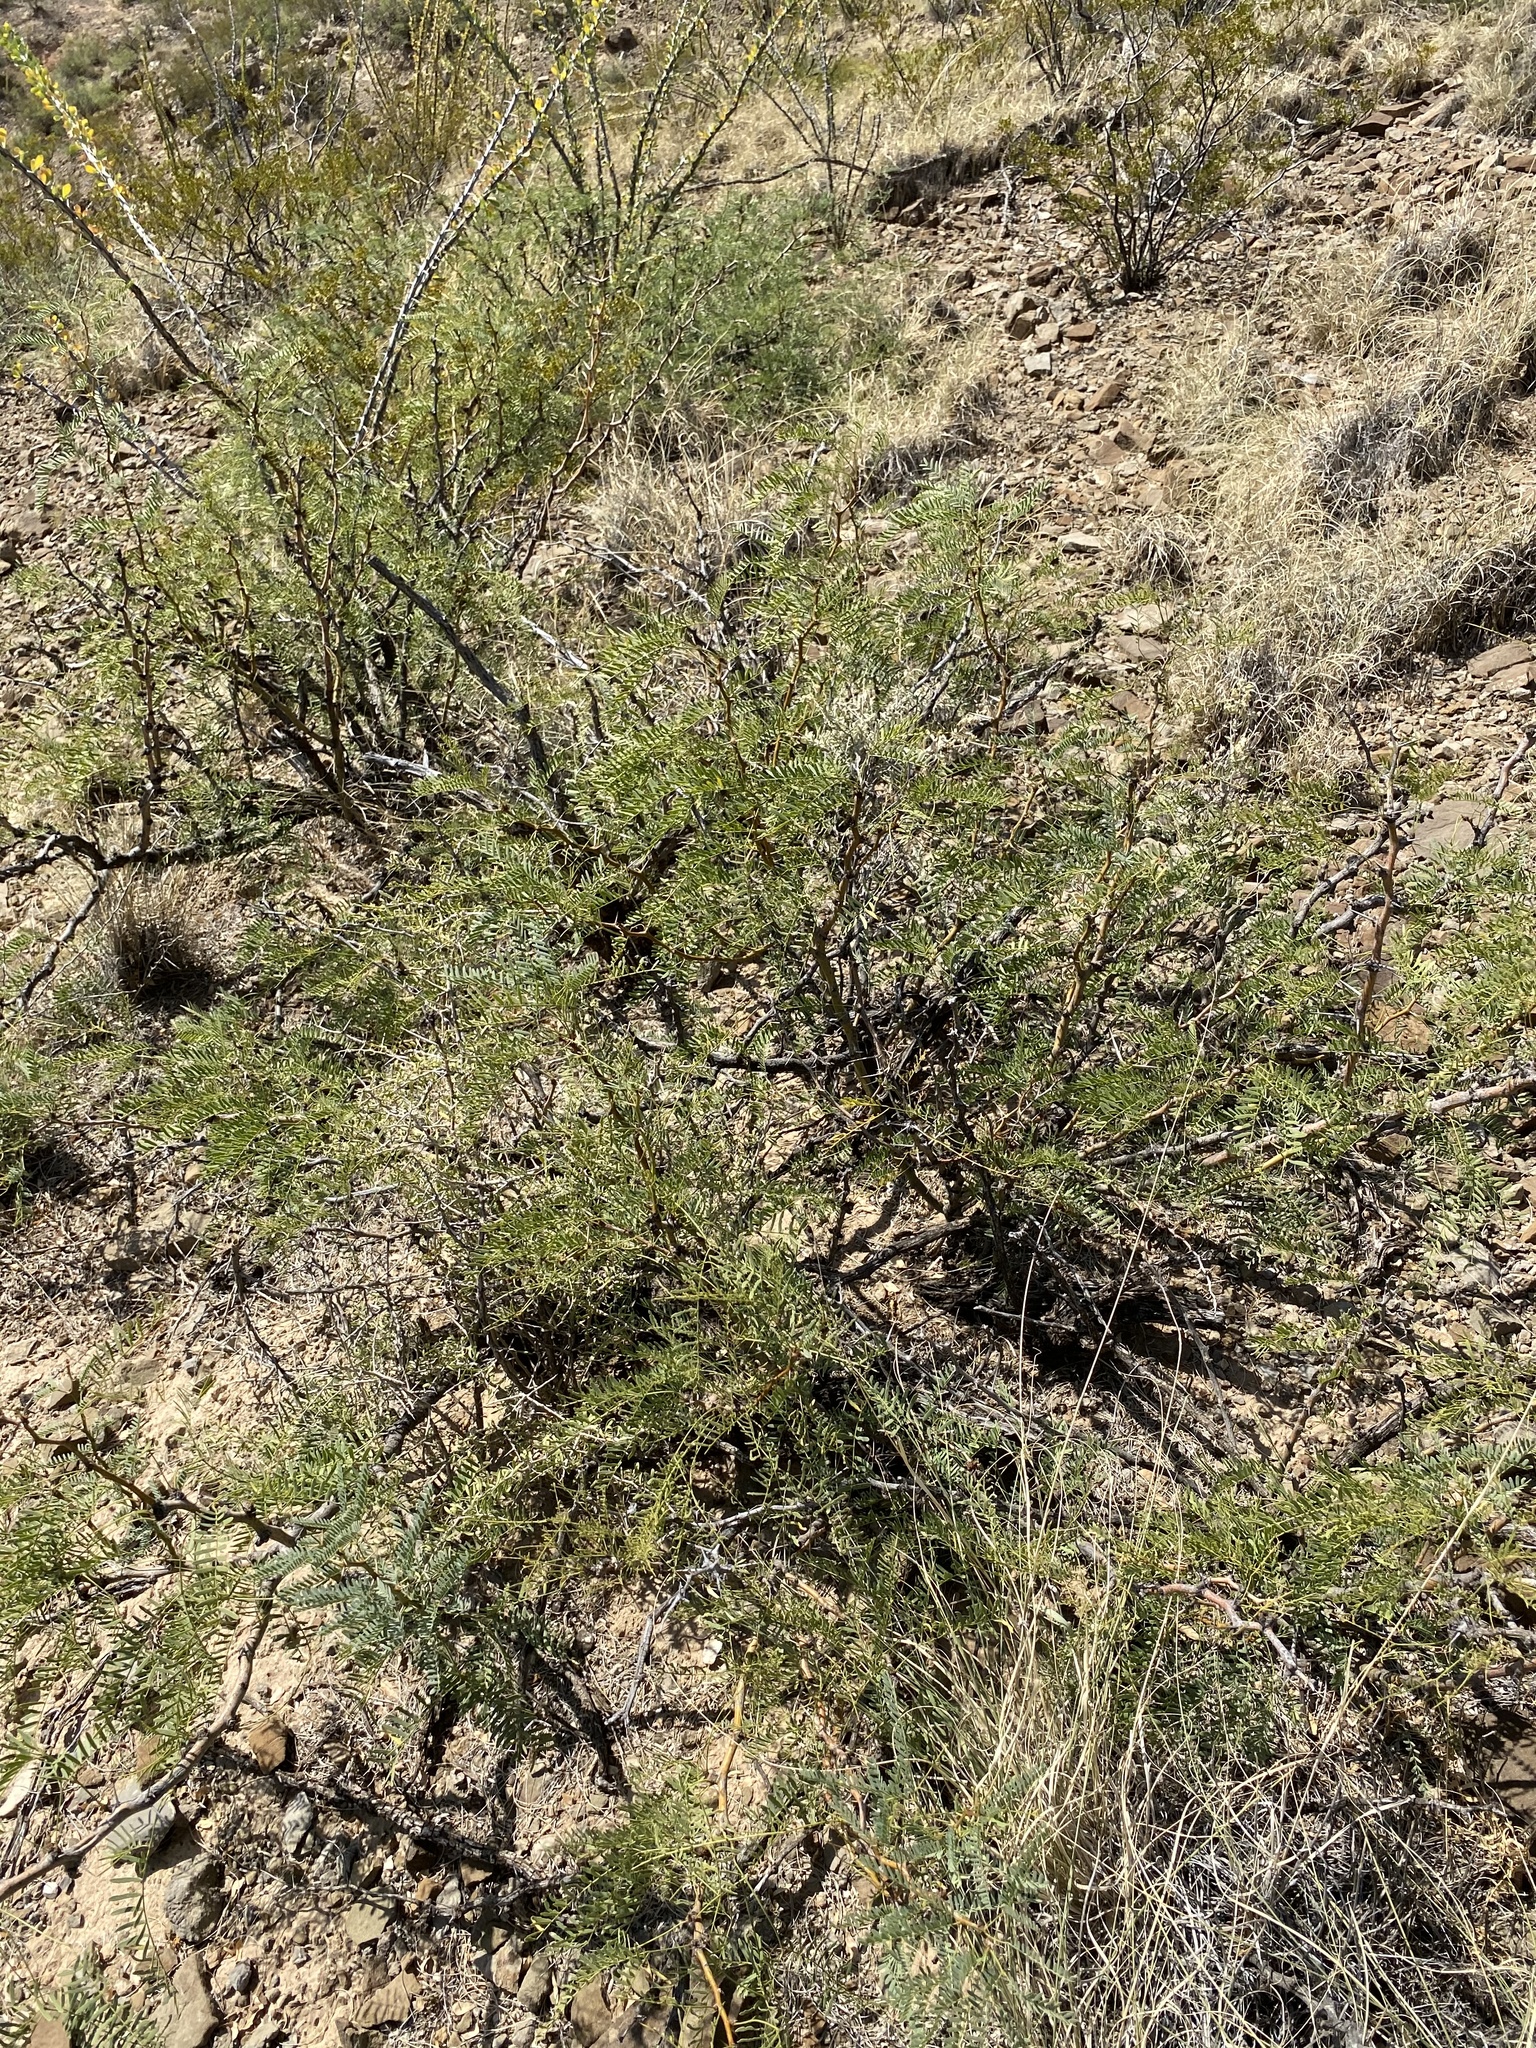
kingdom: Plantae
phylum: Tracheophyta
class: Magnoliopsida
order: Fabales
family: Fabaceae
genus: Prosopis
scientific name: Prosopis glandulosa
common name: Honey mesquite
